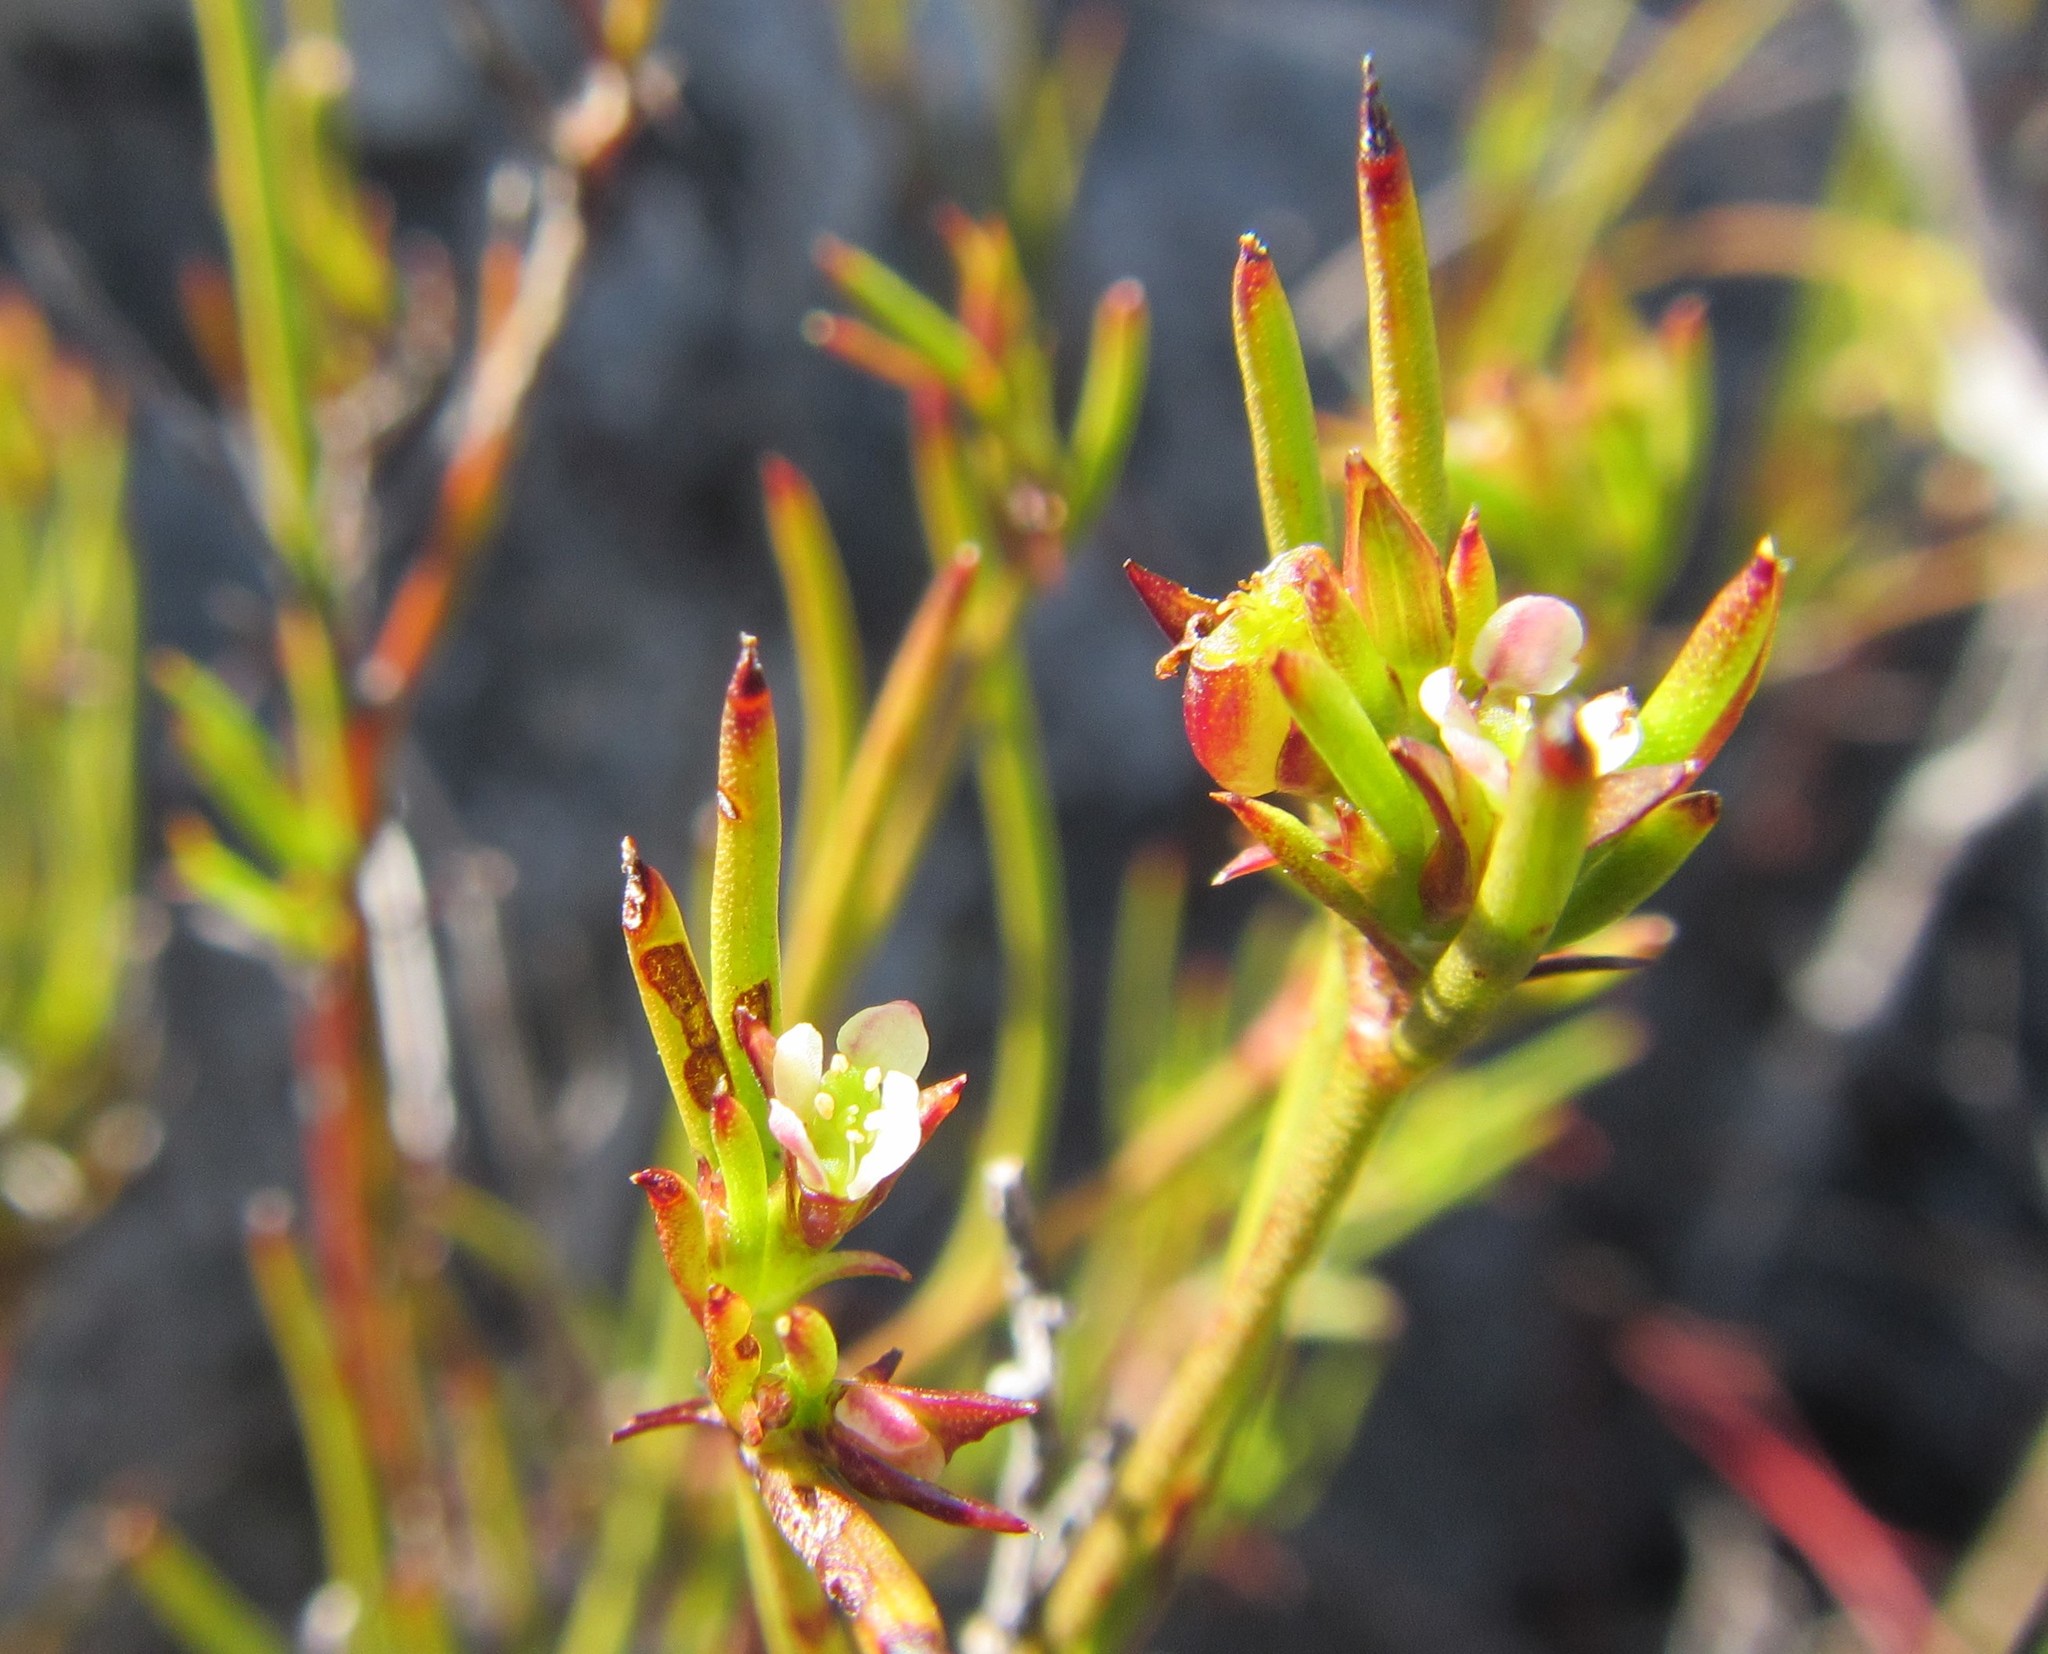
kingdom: Plantae
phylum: Tracheophyta
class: Magnoliopsida
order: Apiales
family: Apiaceae
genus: Centella
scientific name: Centella thesioides
